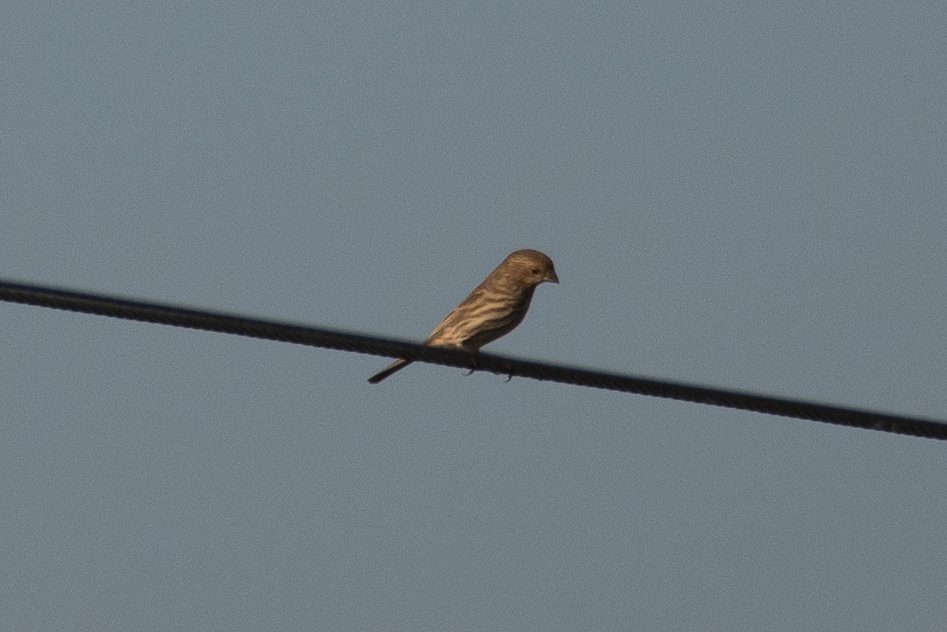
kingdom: Animalia
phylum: Chordata
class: Aves
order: Passeriformes
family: Fringillidae
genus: Haemorhous
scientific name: Haemorhous mexicanus
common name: House finch
